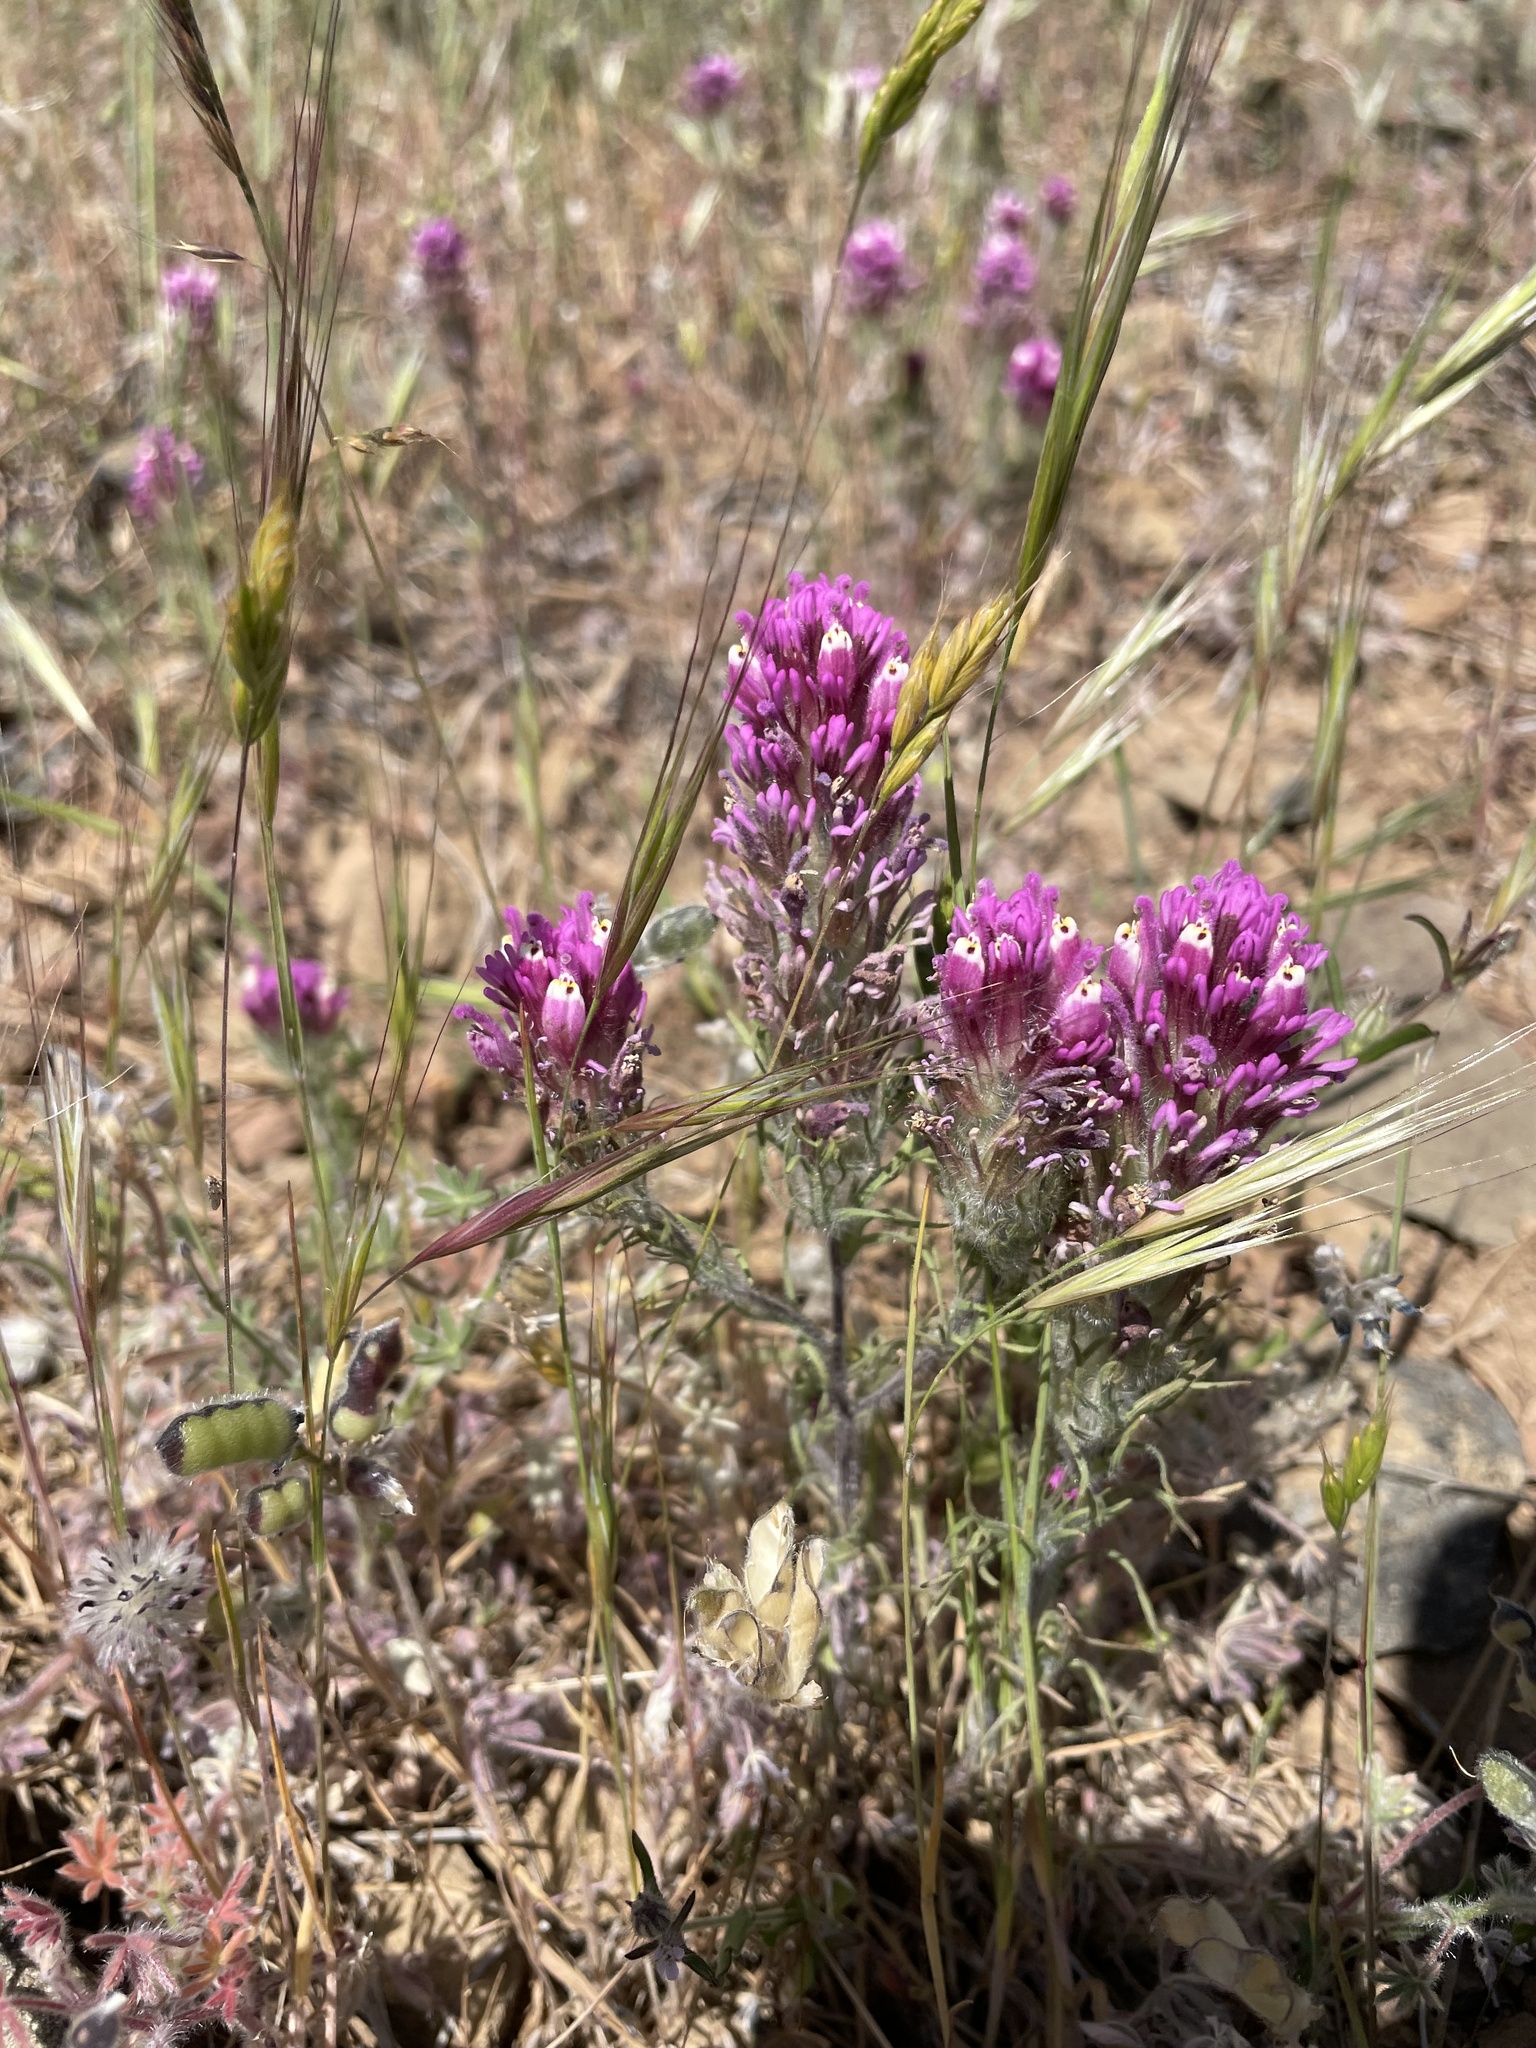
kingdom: Plantae
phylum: Tracheophyta
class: Magnoliopsida
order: Lamiales
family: Orobanchaceae
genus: Castilleja
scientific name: Castilleja exserta
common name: Purple owl-clover
